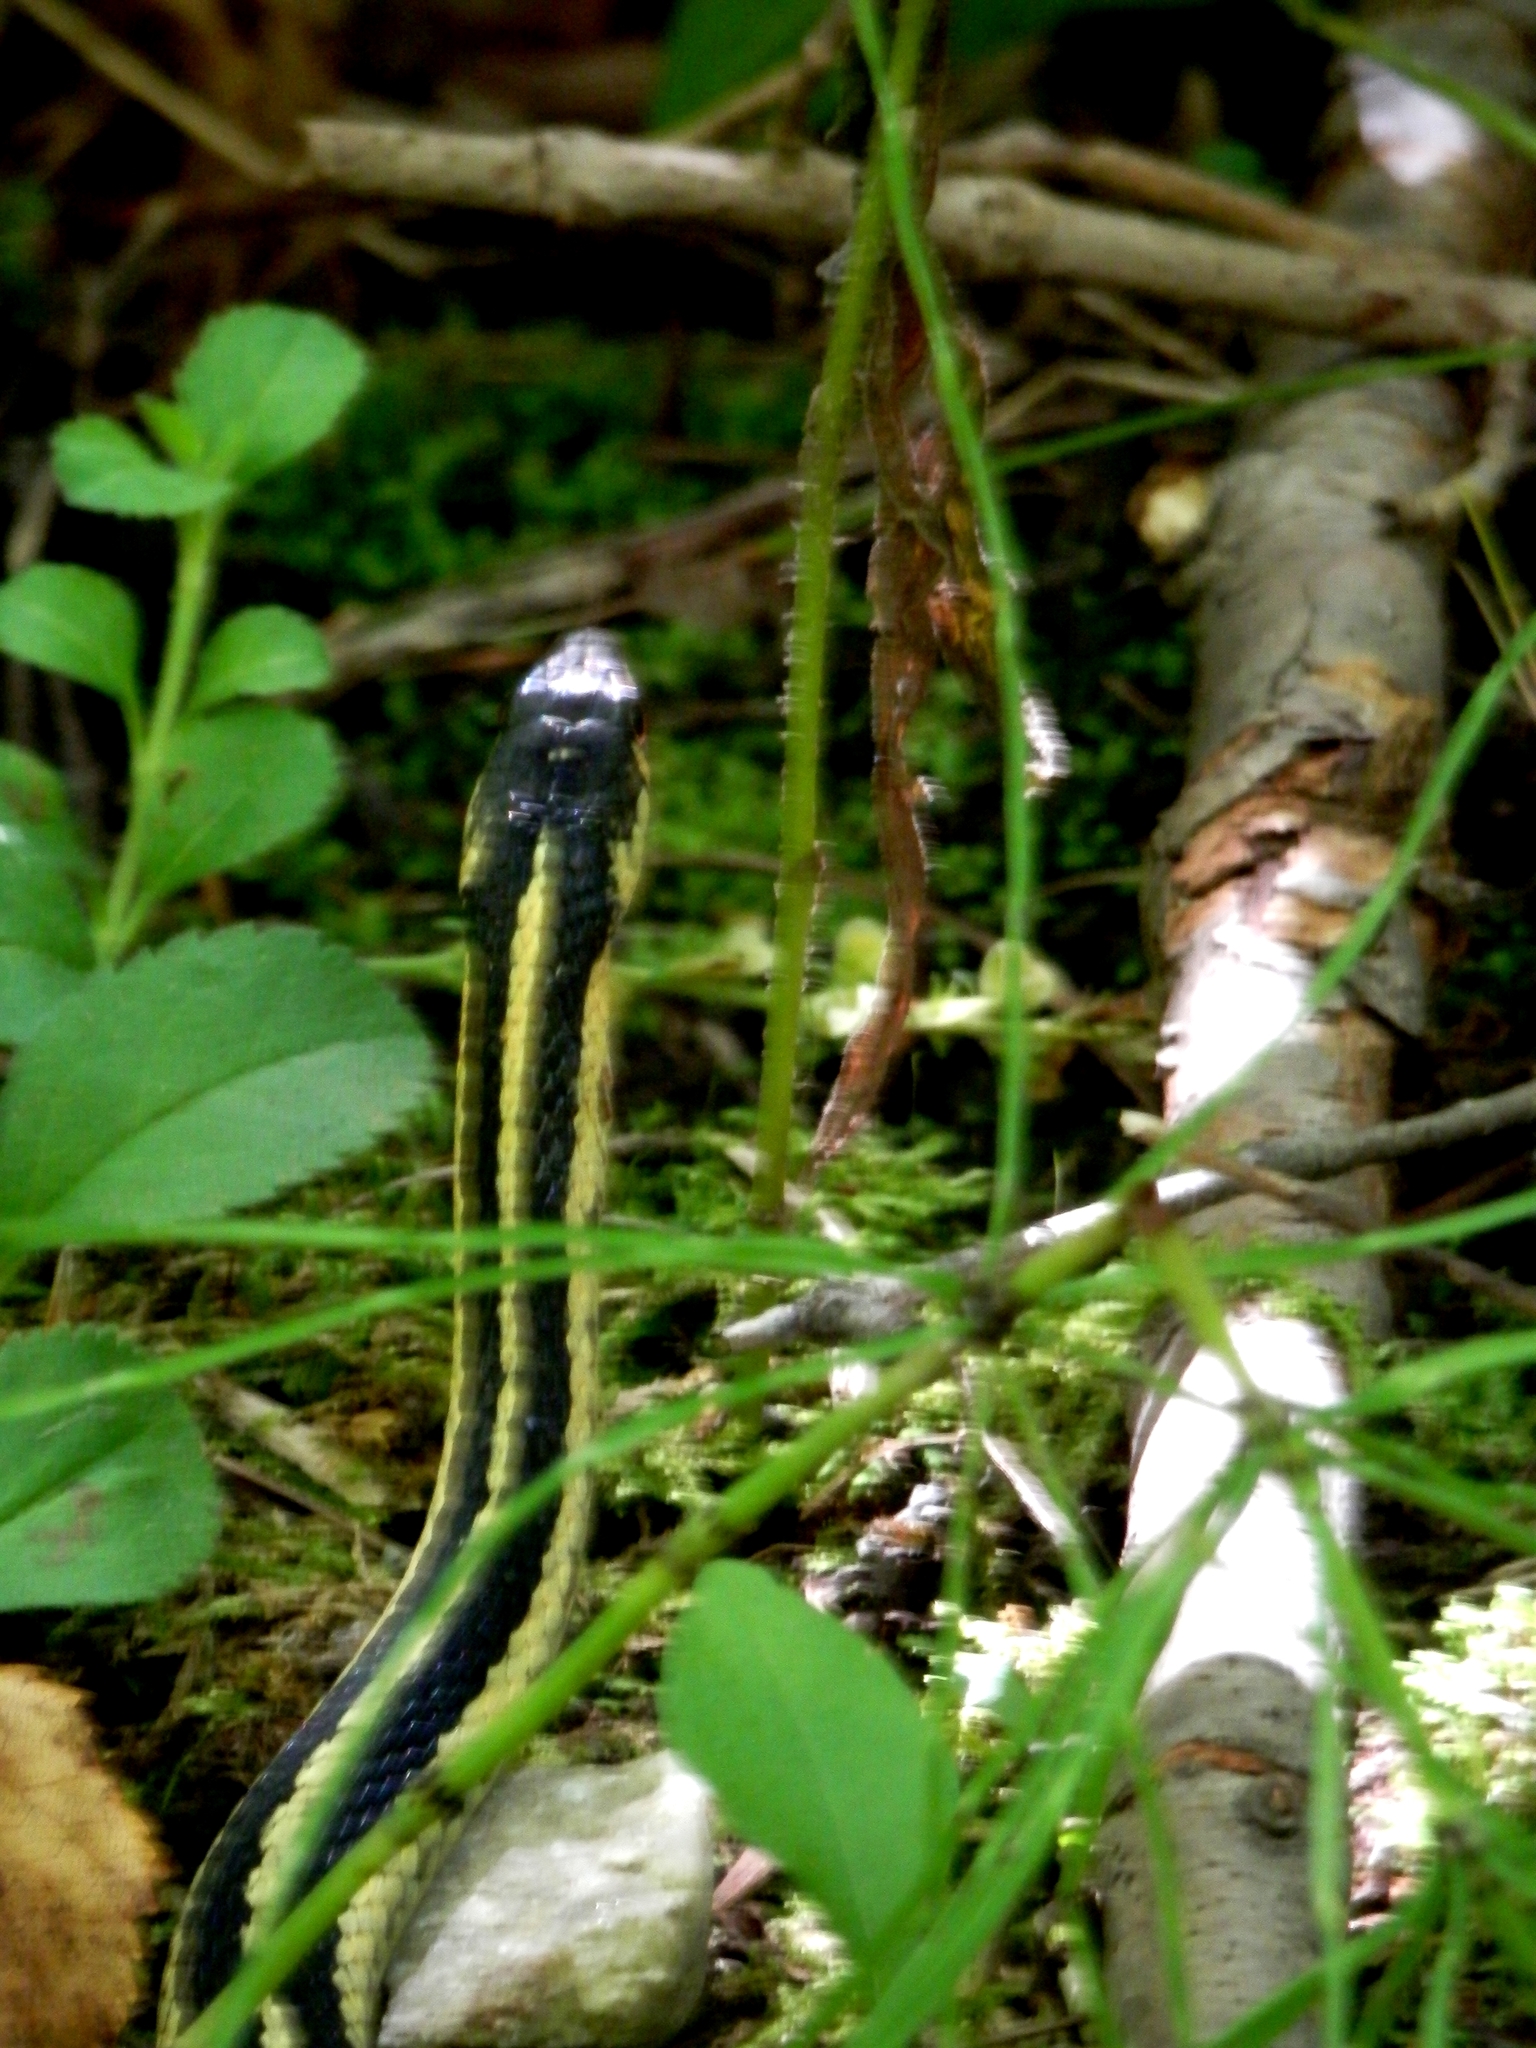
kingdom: Animalia
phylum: Chordata
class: Squamata
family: Colubridae
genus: Thamnophis
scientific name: Thamnophis sirtalis
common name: Common garter snake
